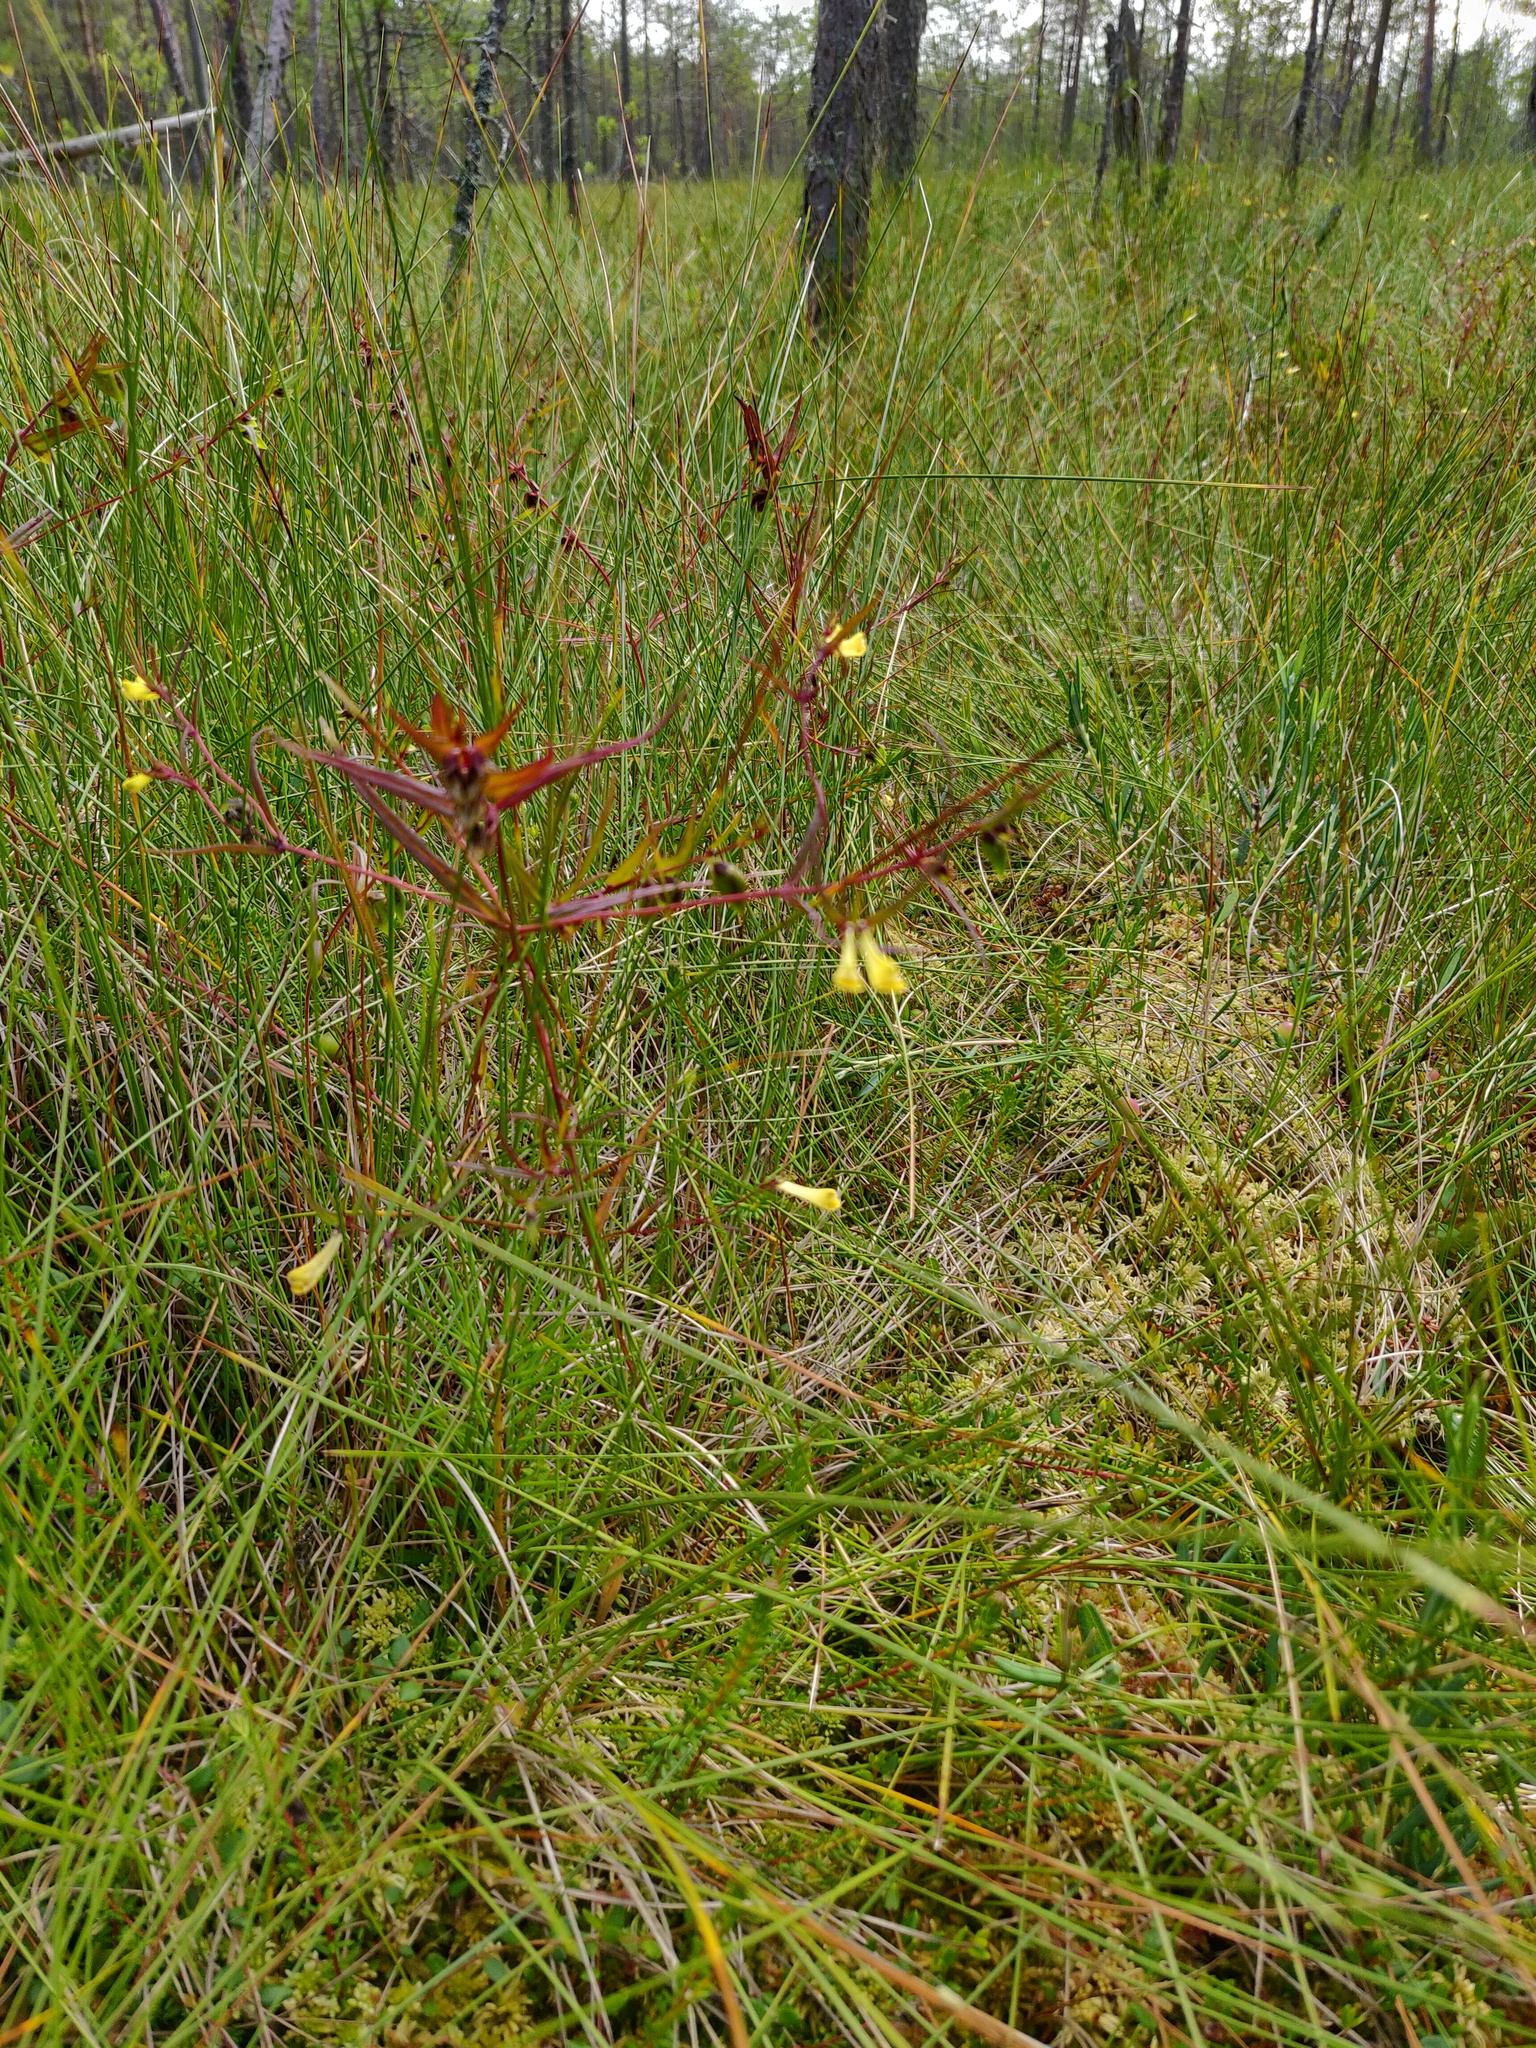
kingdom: Plantae
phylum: Tracheophyta
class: Magnoliopsida
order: Lamiales
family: Orobanchaceae
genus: Melampyrum
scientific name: Melampyrum pratense
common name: Common cow-wheat
